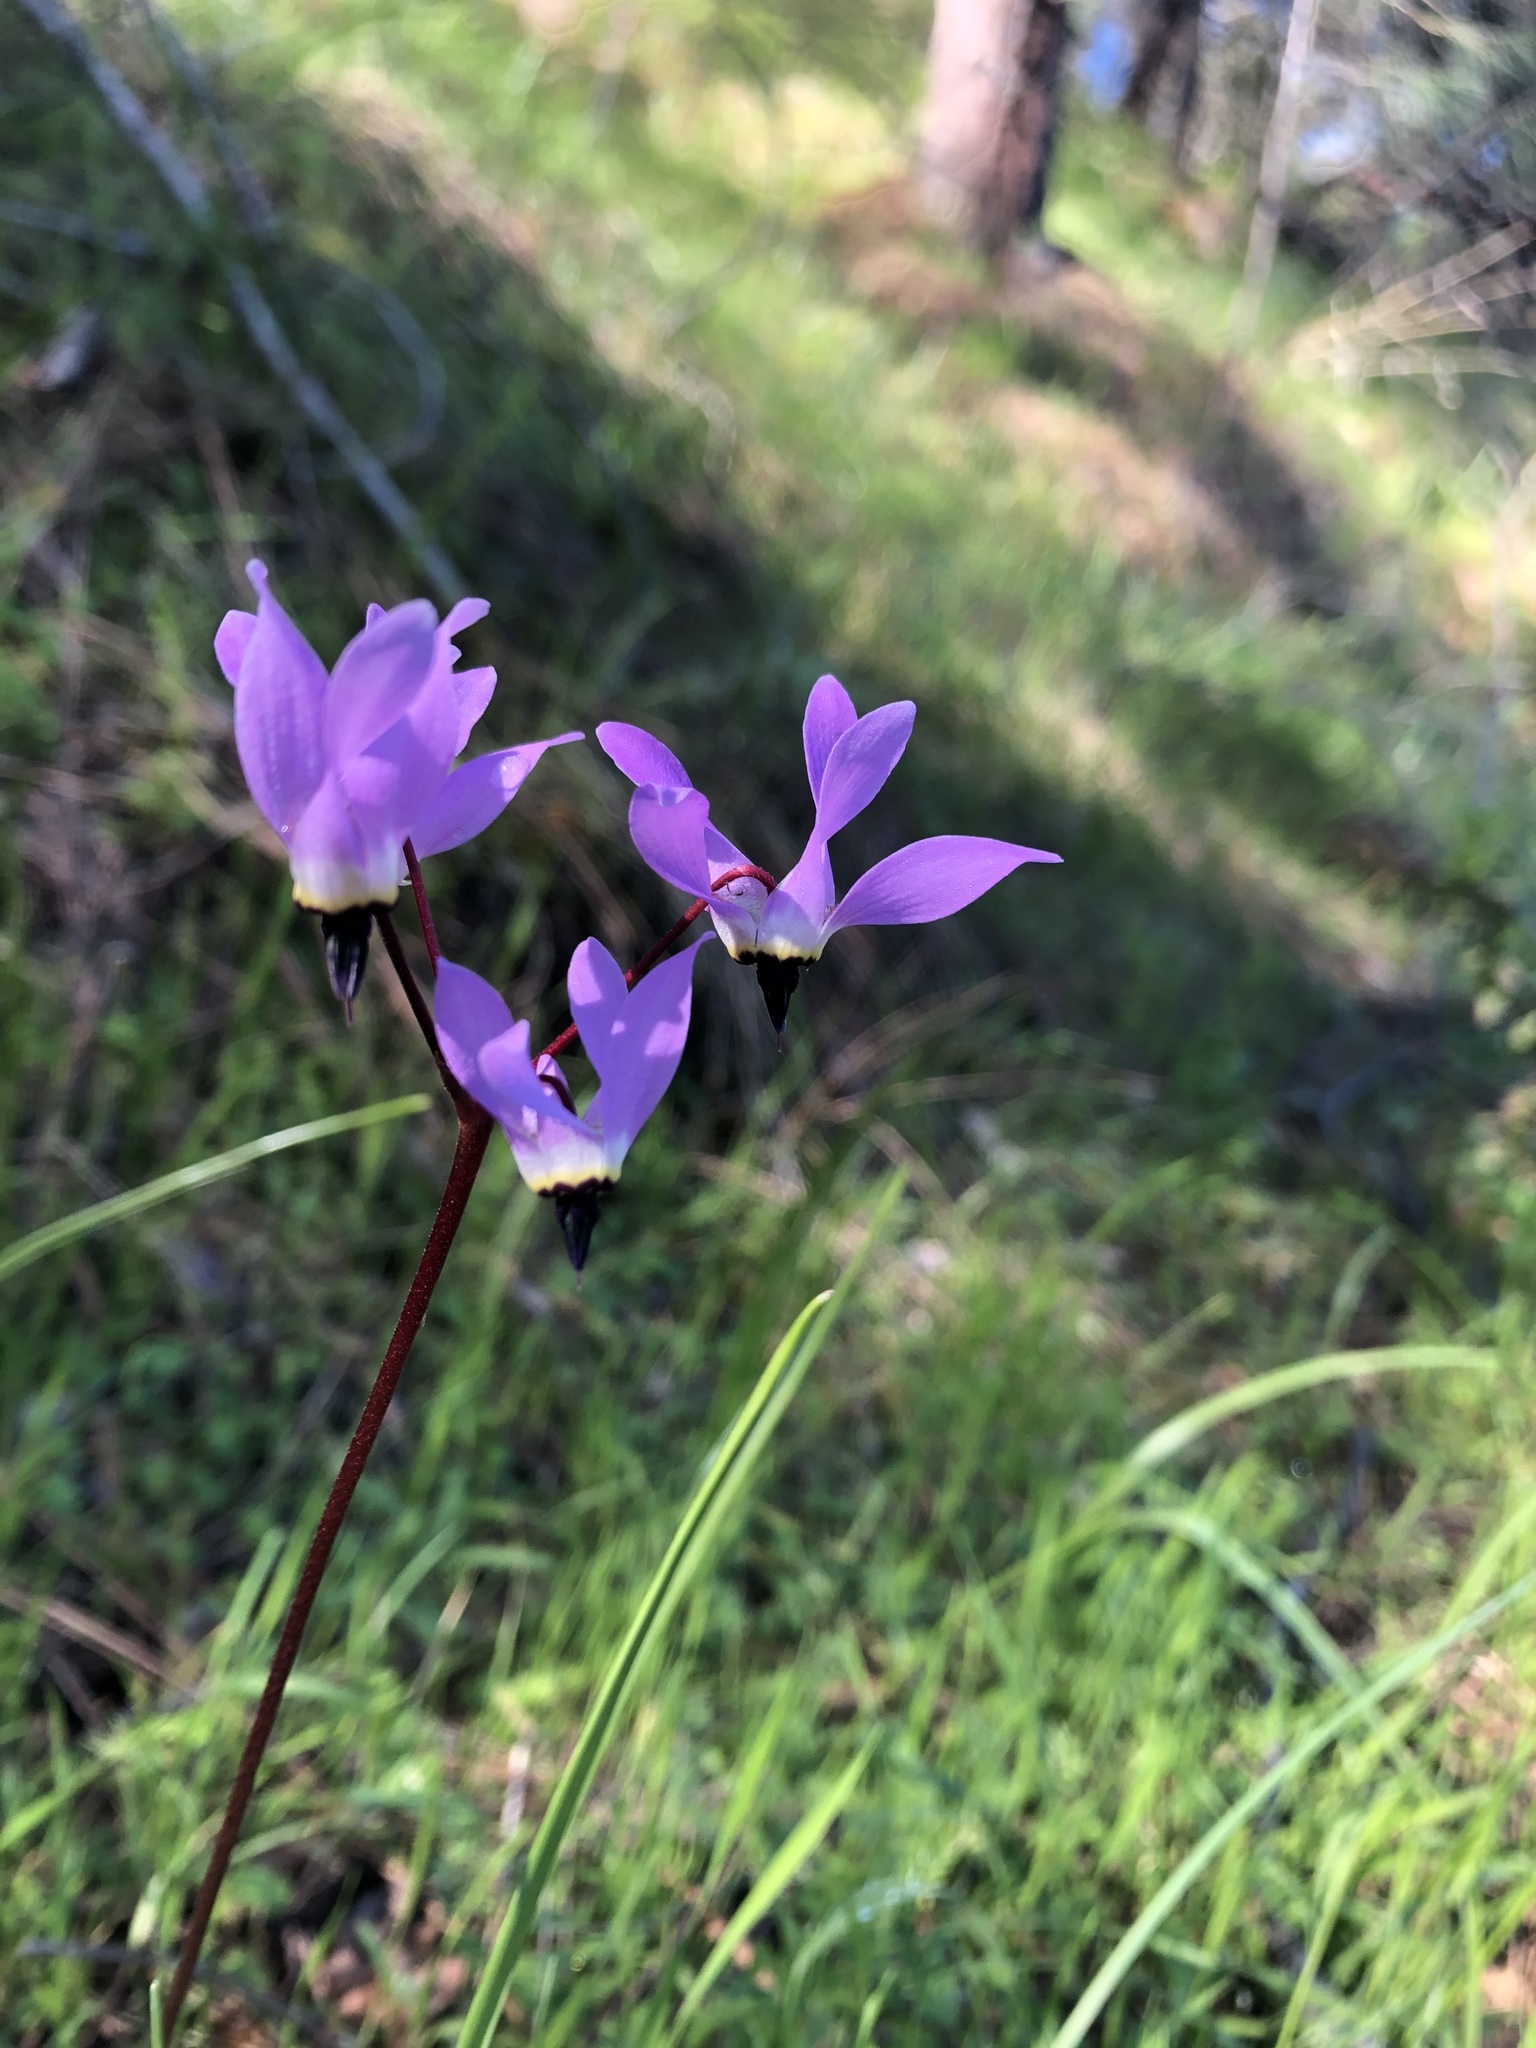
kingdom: Plantae
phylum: Tracheophyta
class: Magnoliopsida
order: Ericales
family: Primulaceae
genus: Dodecatheon
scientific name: Dodecatheon hendersonii
